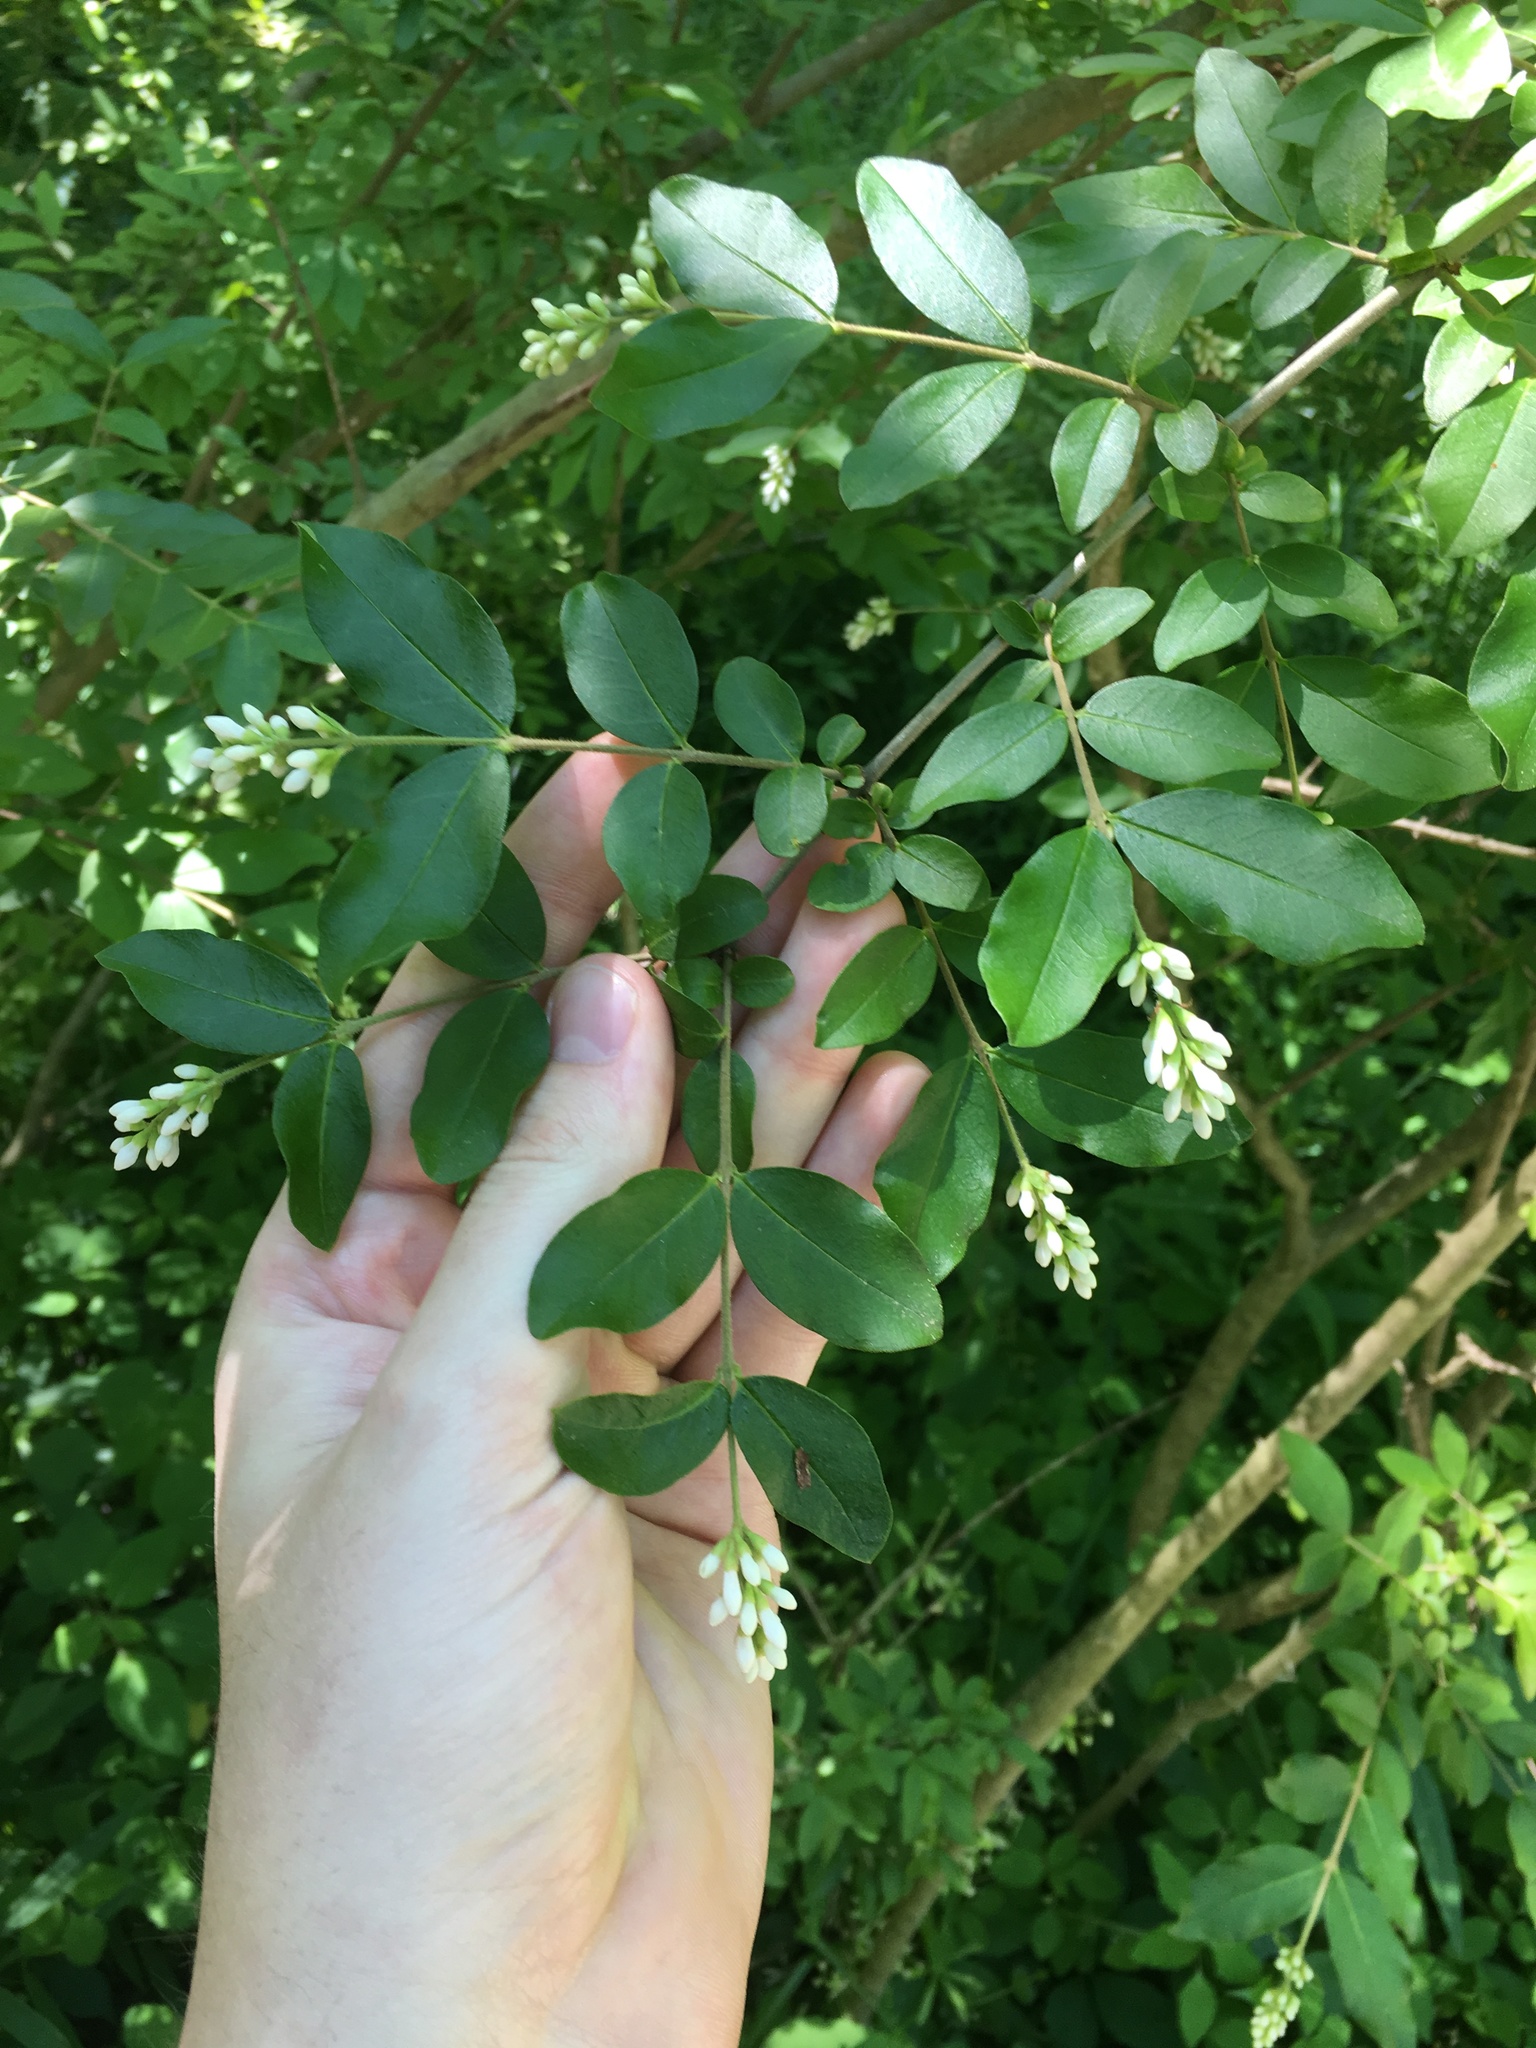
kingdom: Plantae
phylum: Tracheophyta
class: Magnoliopsida
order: Lamiales
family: Oleaceae
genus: Ligustrum
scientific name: Ligustrum obtusifolium
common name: Border privet
